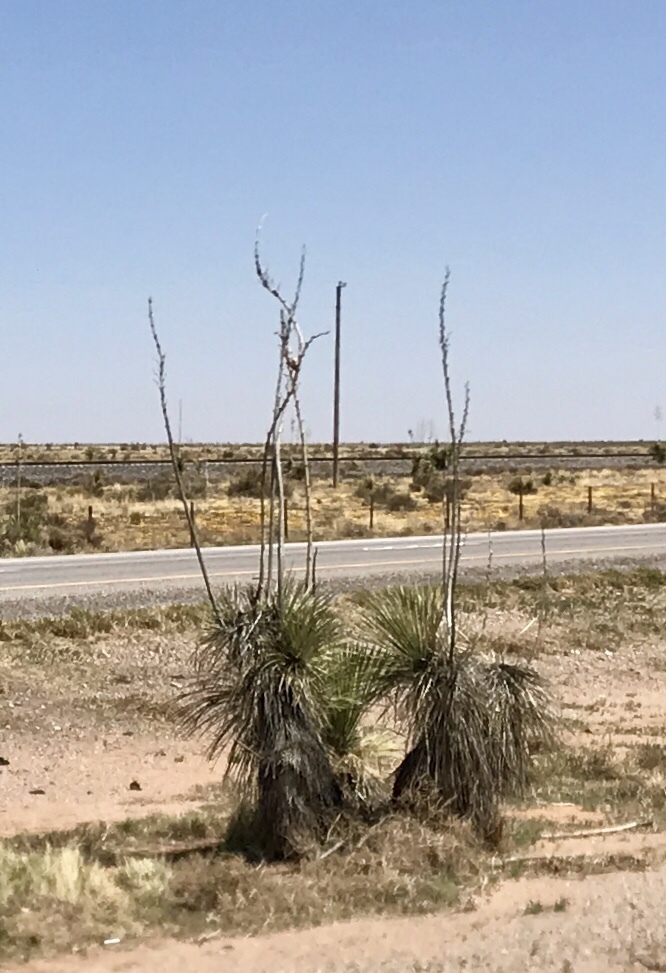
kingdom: Plantae
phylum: Tracheophyta
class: Liliopsida
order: Asparagales
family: Asparagaceae
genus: Yucca
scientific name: Yucca elata
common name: Palmella
